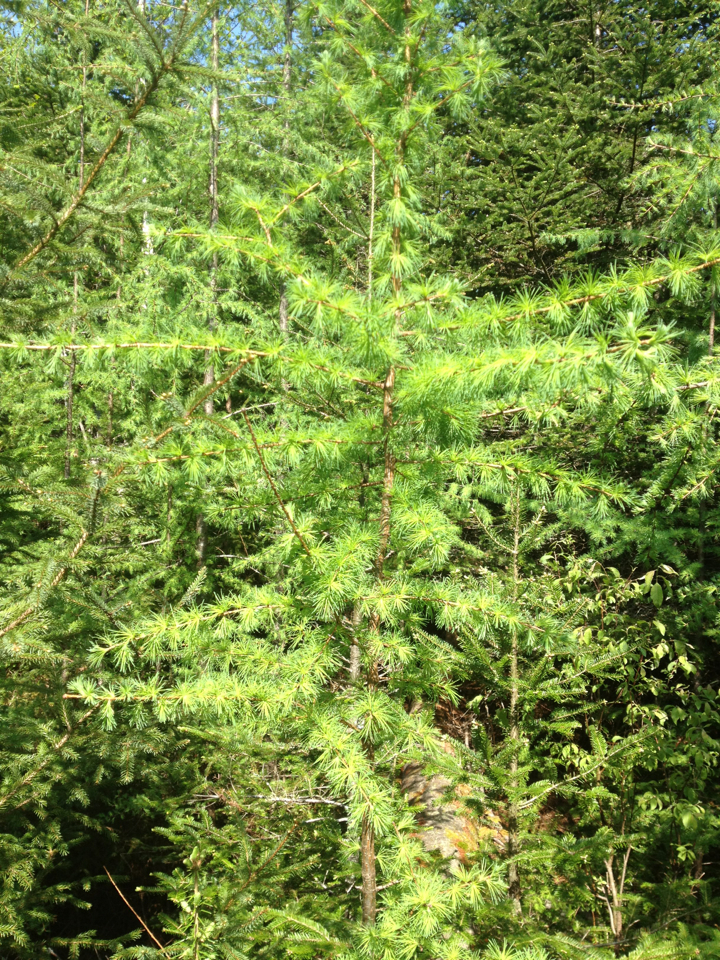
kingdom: Plantae
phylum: Tracheophyta
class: Pinopsida
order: Pinales
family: Pinaceae
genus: Larix
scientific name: Larix laricina
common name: American larch
